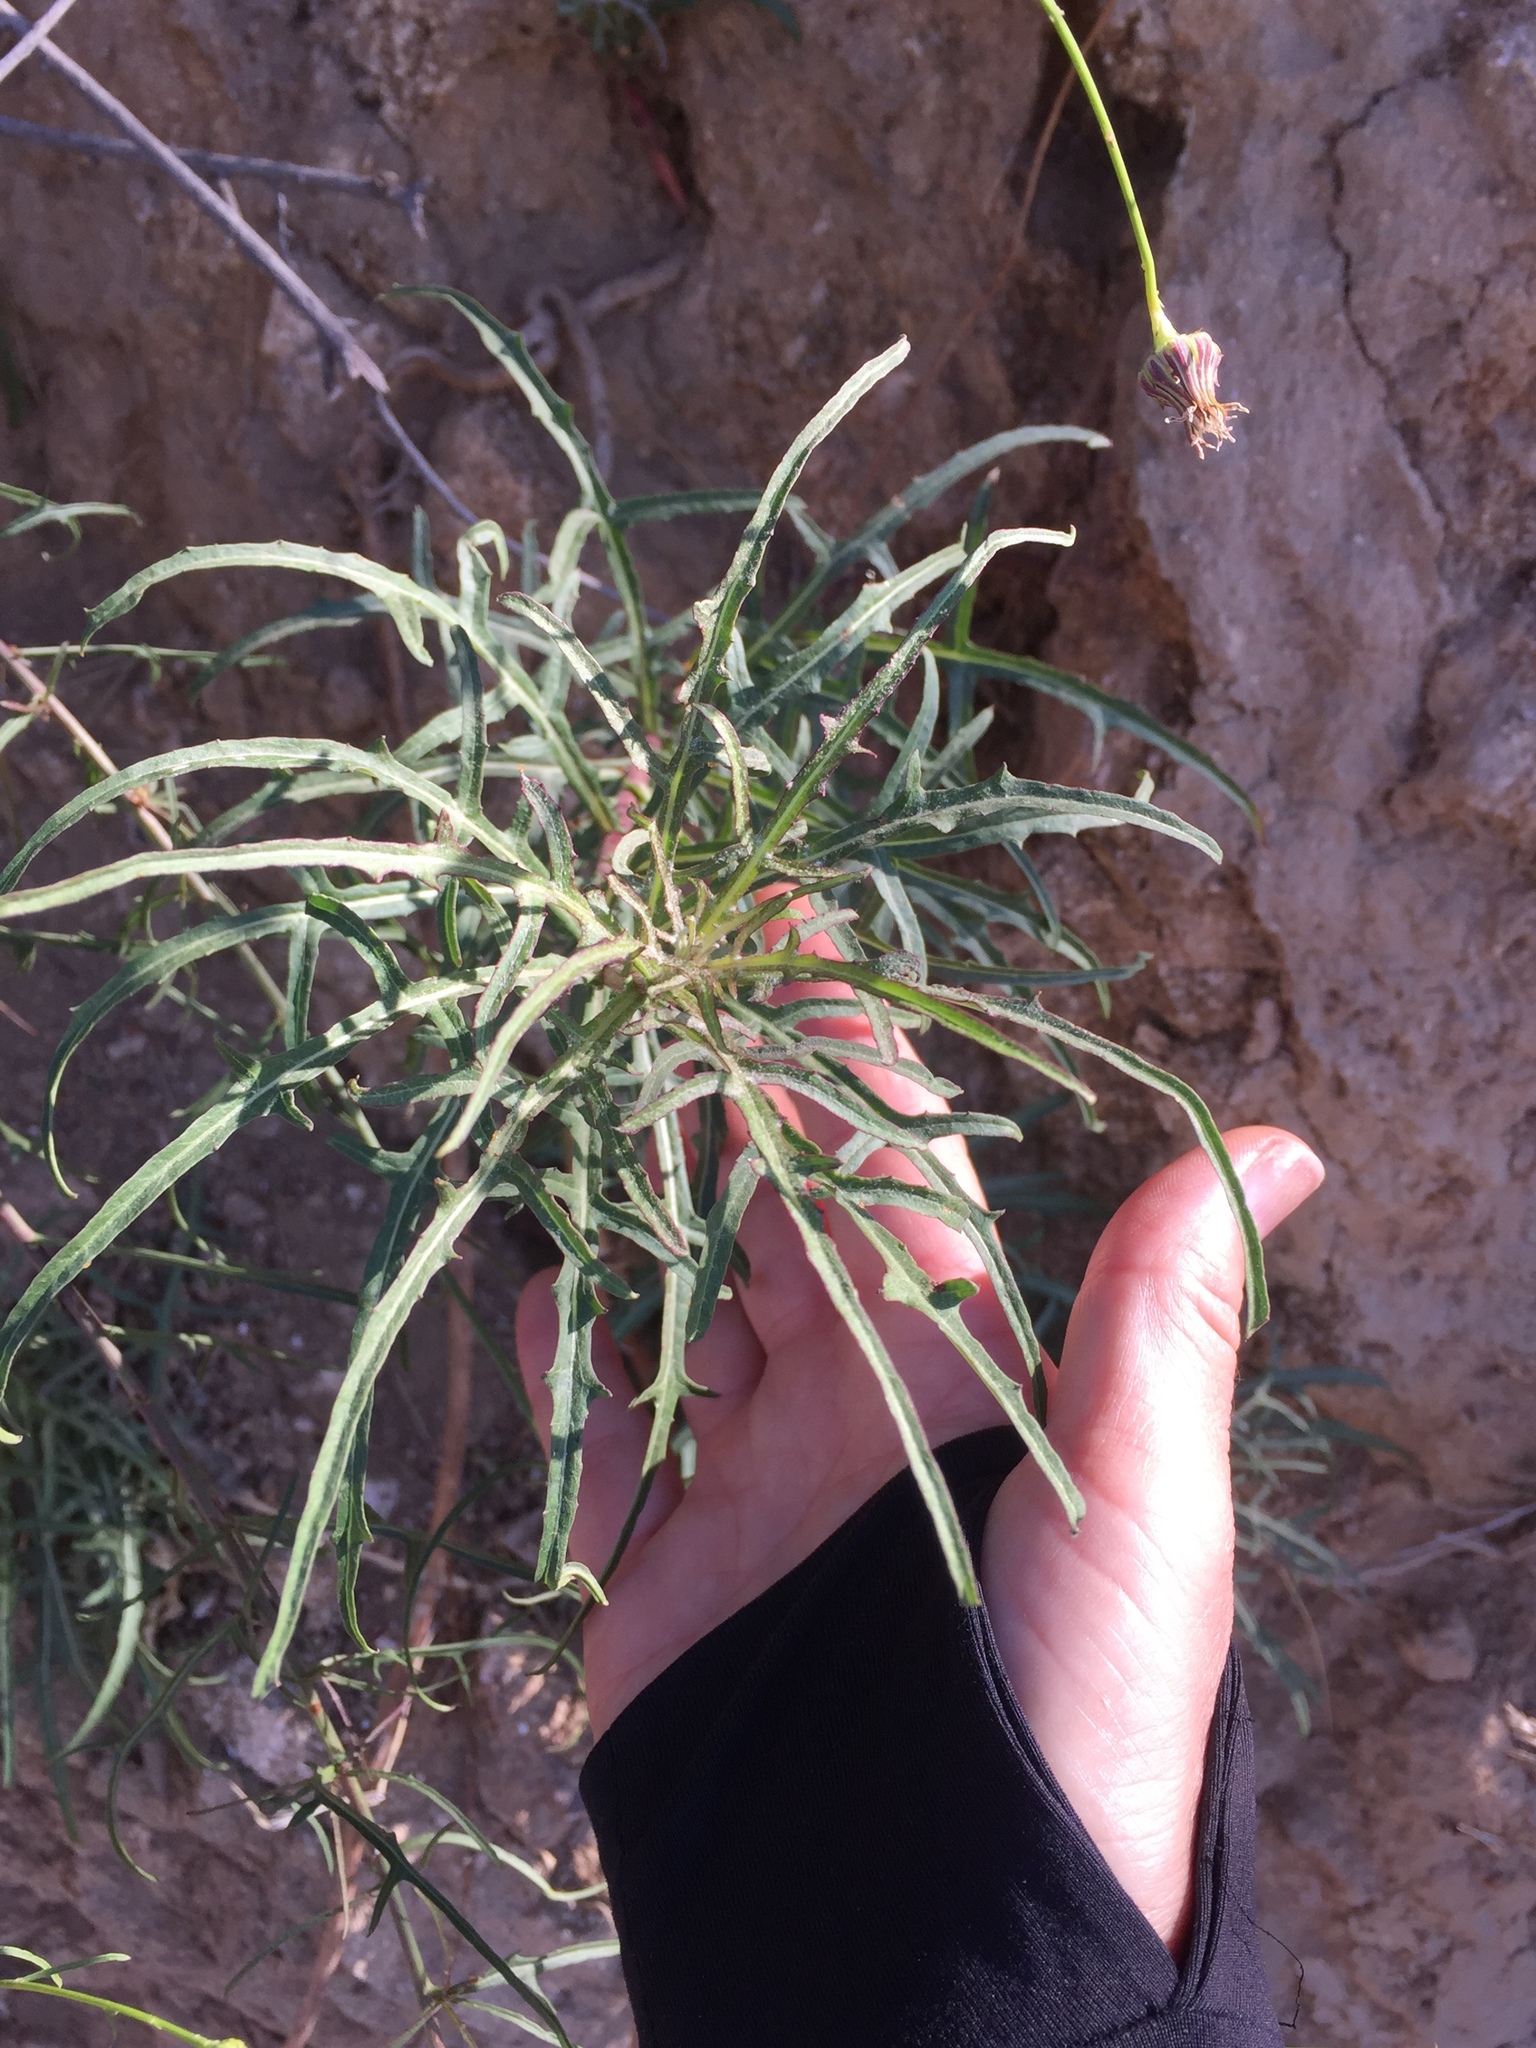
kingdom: Plantae
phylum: Tracheophyta
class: Magnoliopsida
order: Asterales
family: Asteraceae
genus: Malacothrix
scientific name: Malacothrix saxatilis
